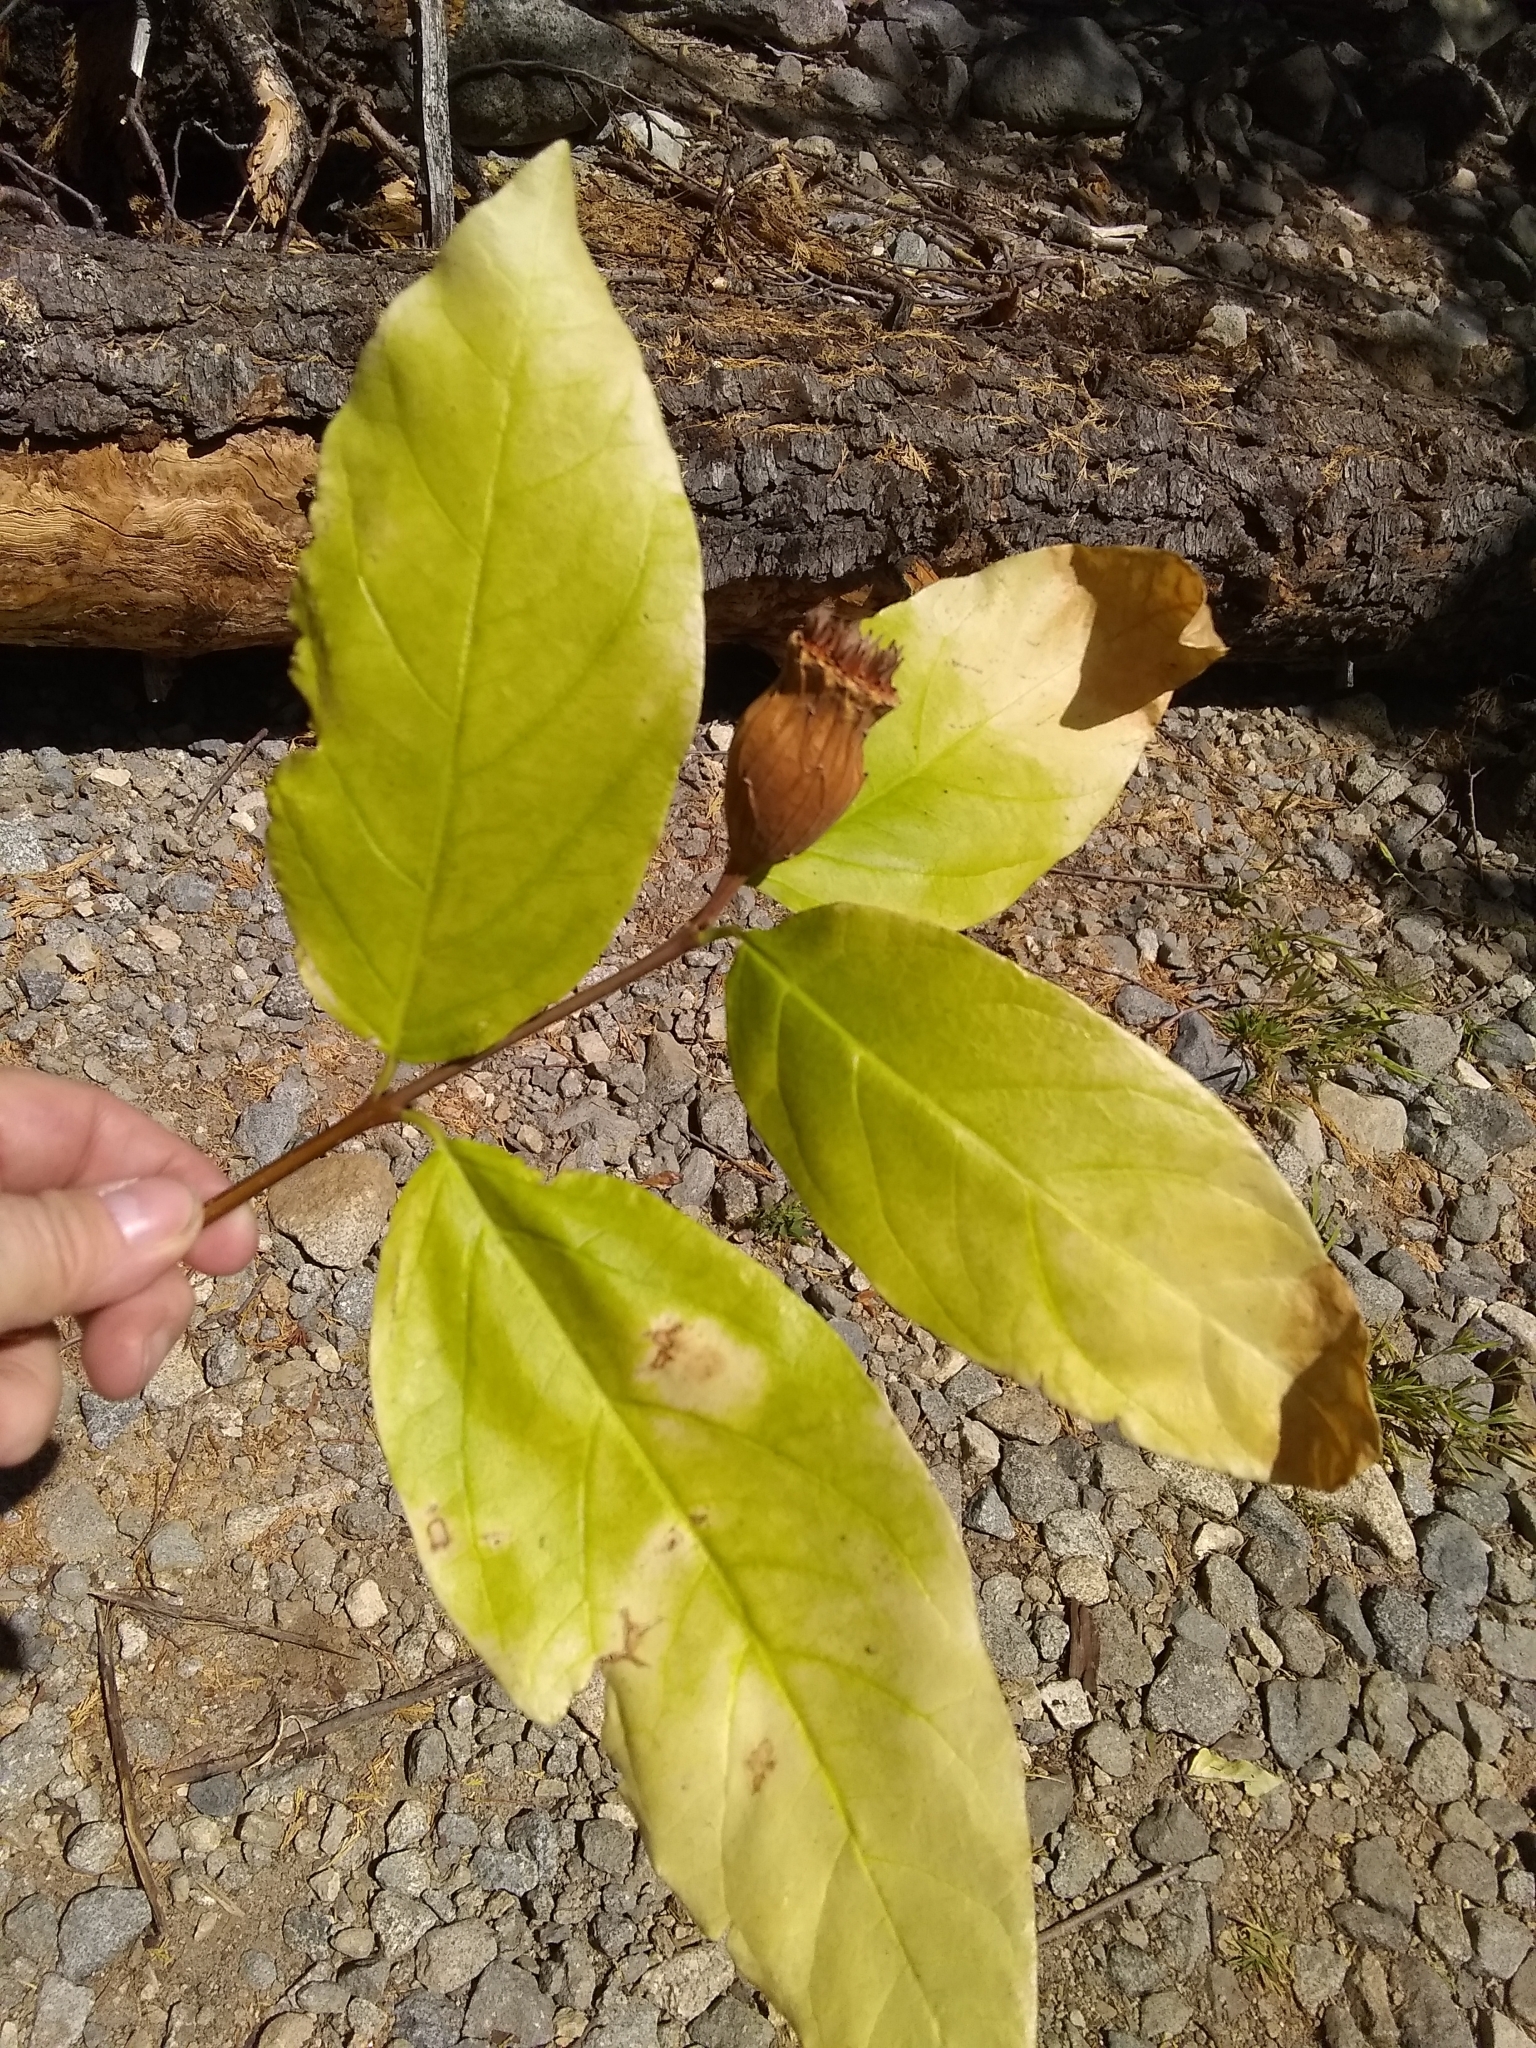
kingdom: Plantae
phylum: Tracheophyta
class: Magnoliopsida
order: Laurales
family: Calycanthaceae
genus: Calycanthus
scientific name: Calycanthus occidentalis
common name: California spicebush
